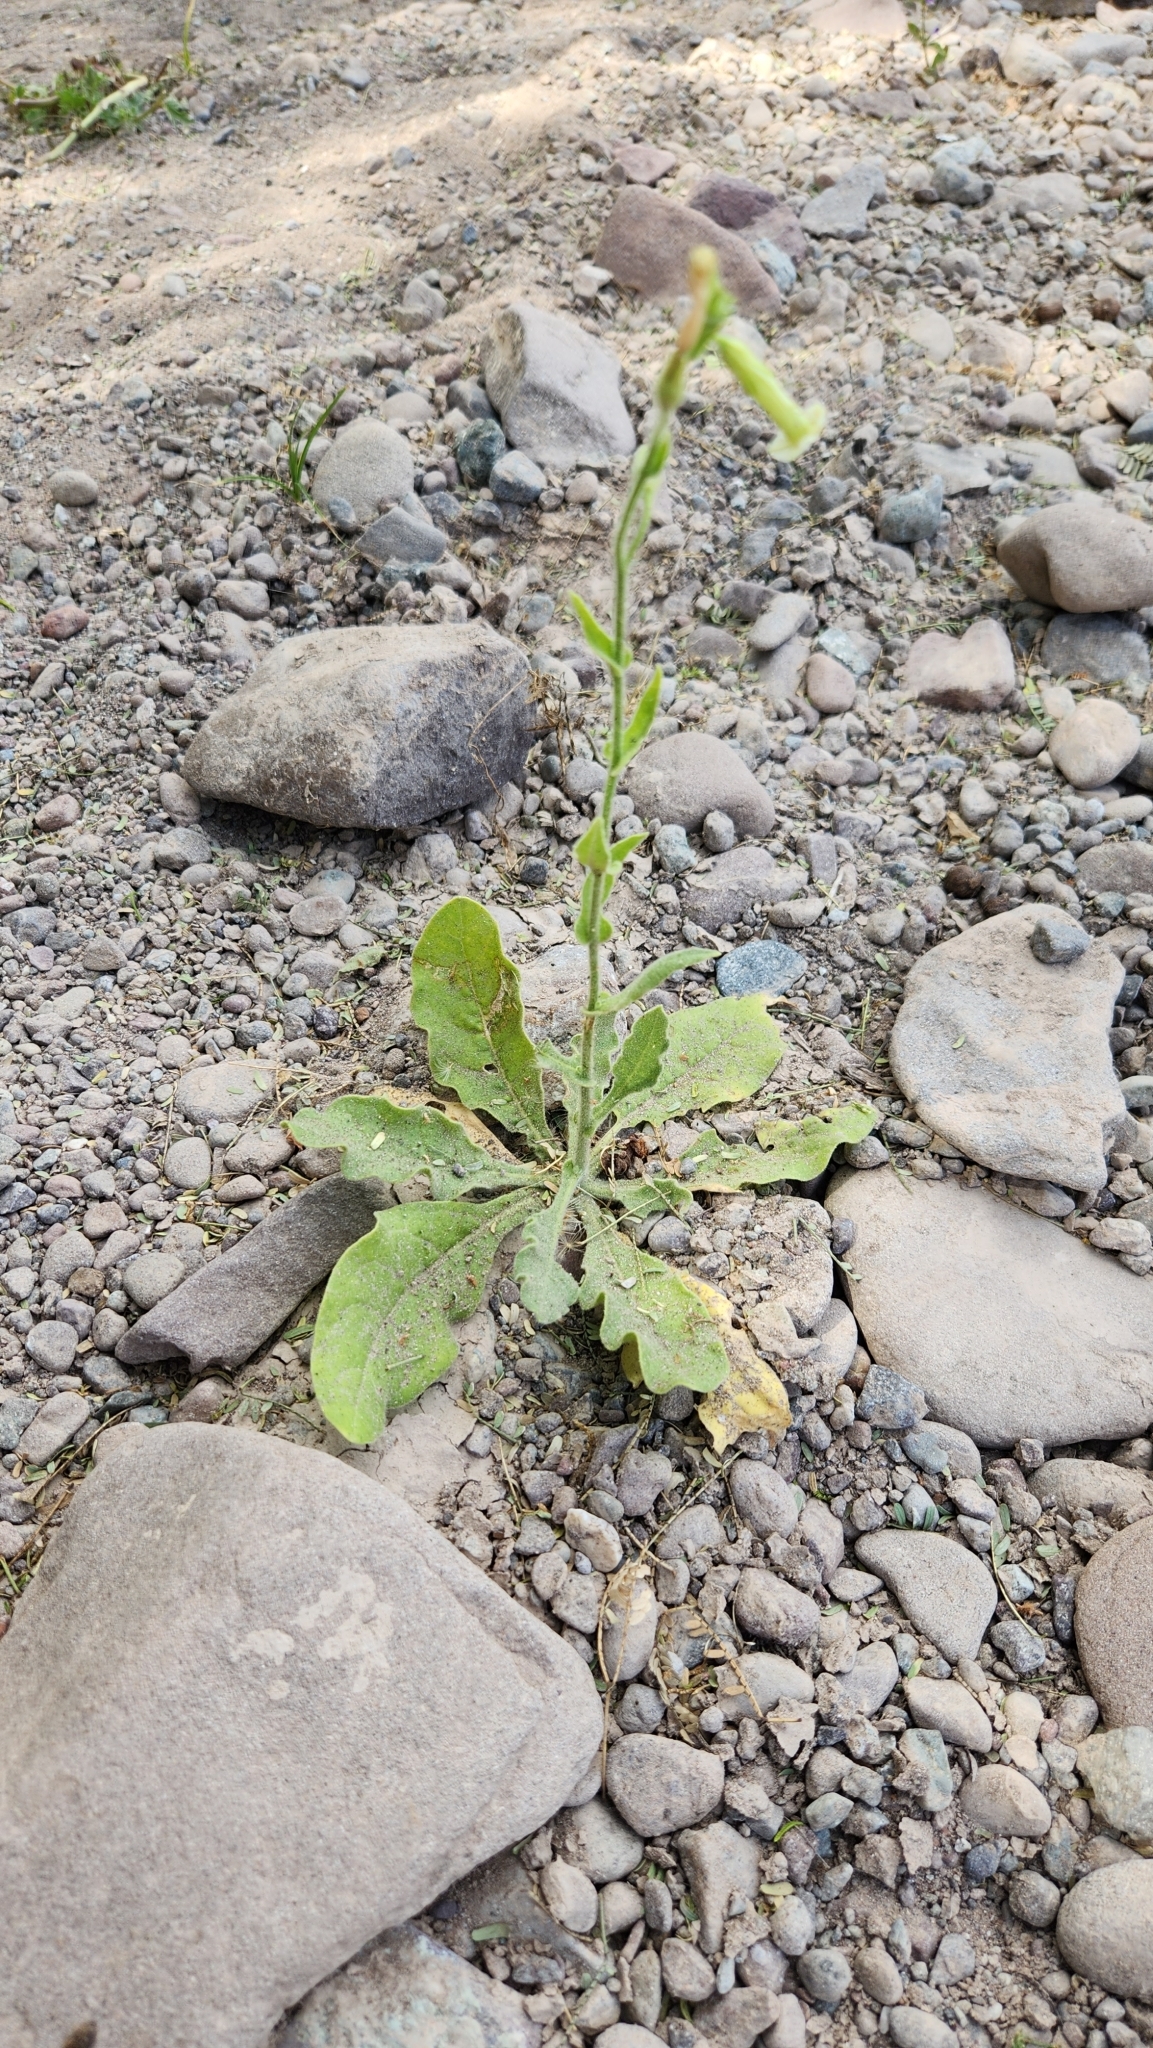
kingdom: Plantae
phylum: Tracheophyta
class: Magnoliopsida
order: Solanales
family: Solanaceae
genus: Nicotiana
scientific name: Nicotiana obtusifolia
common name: Desert tobacco
